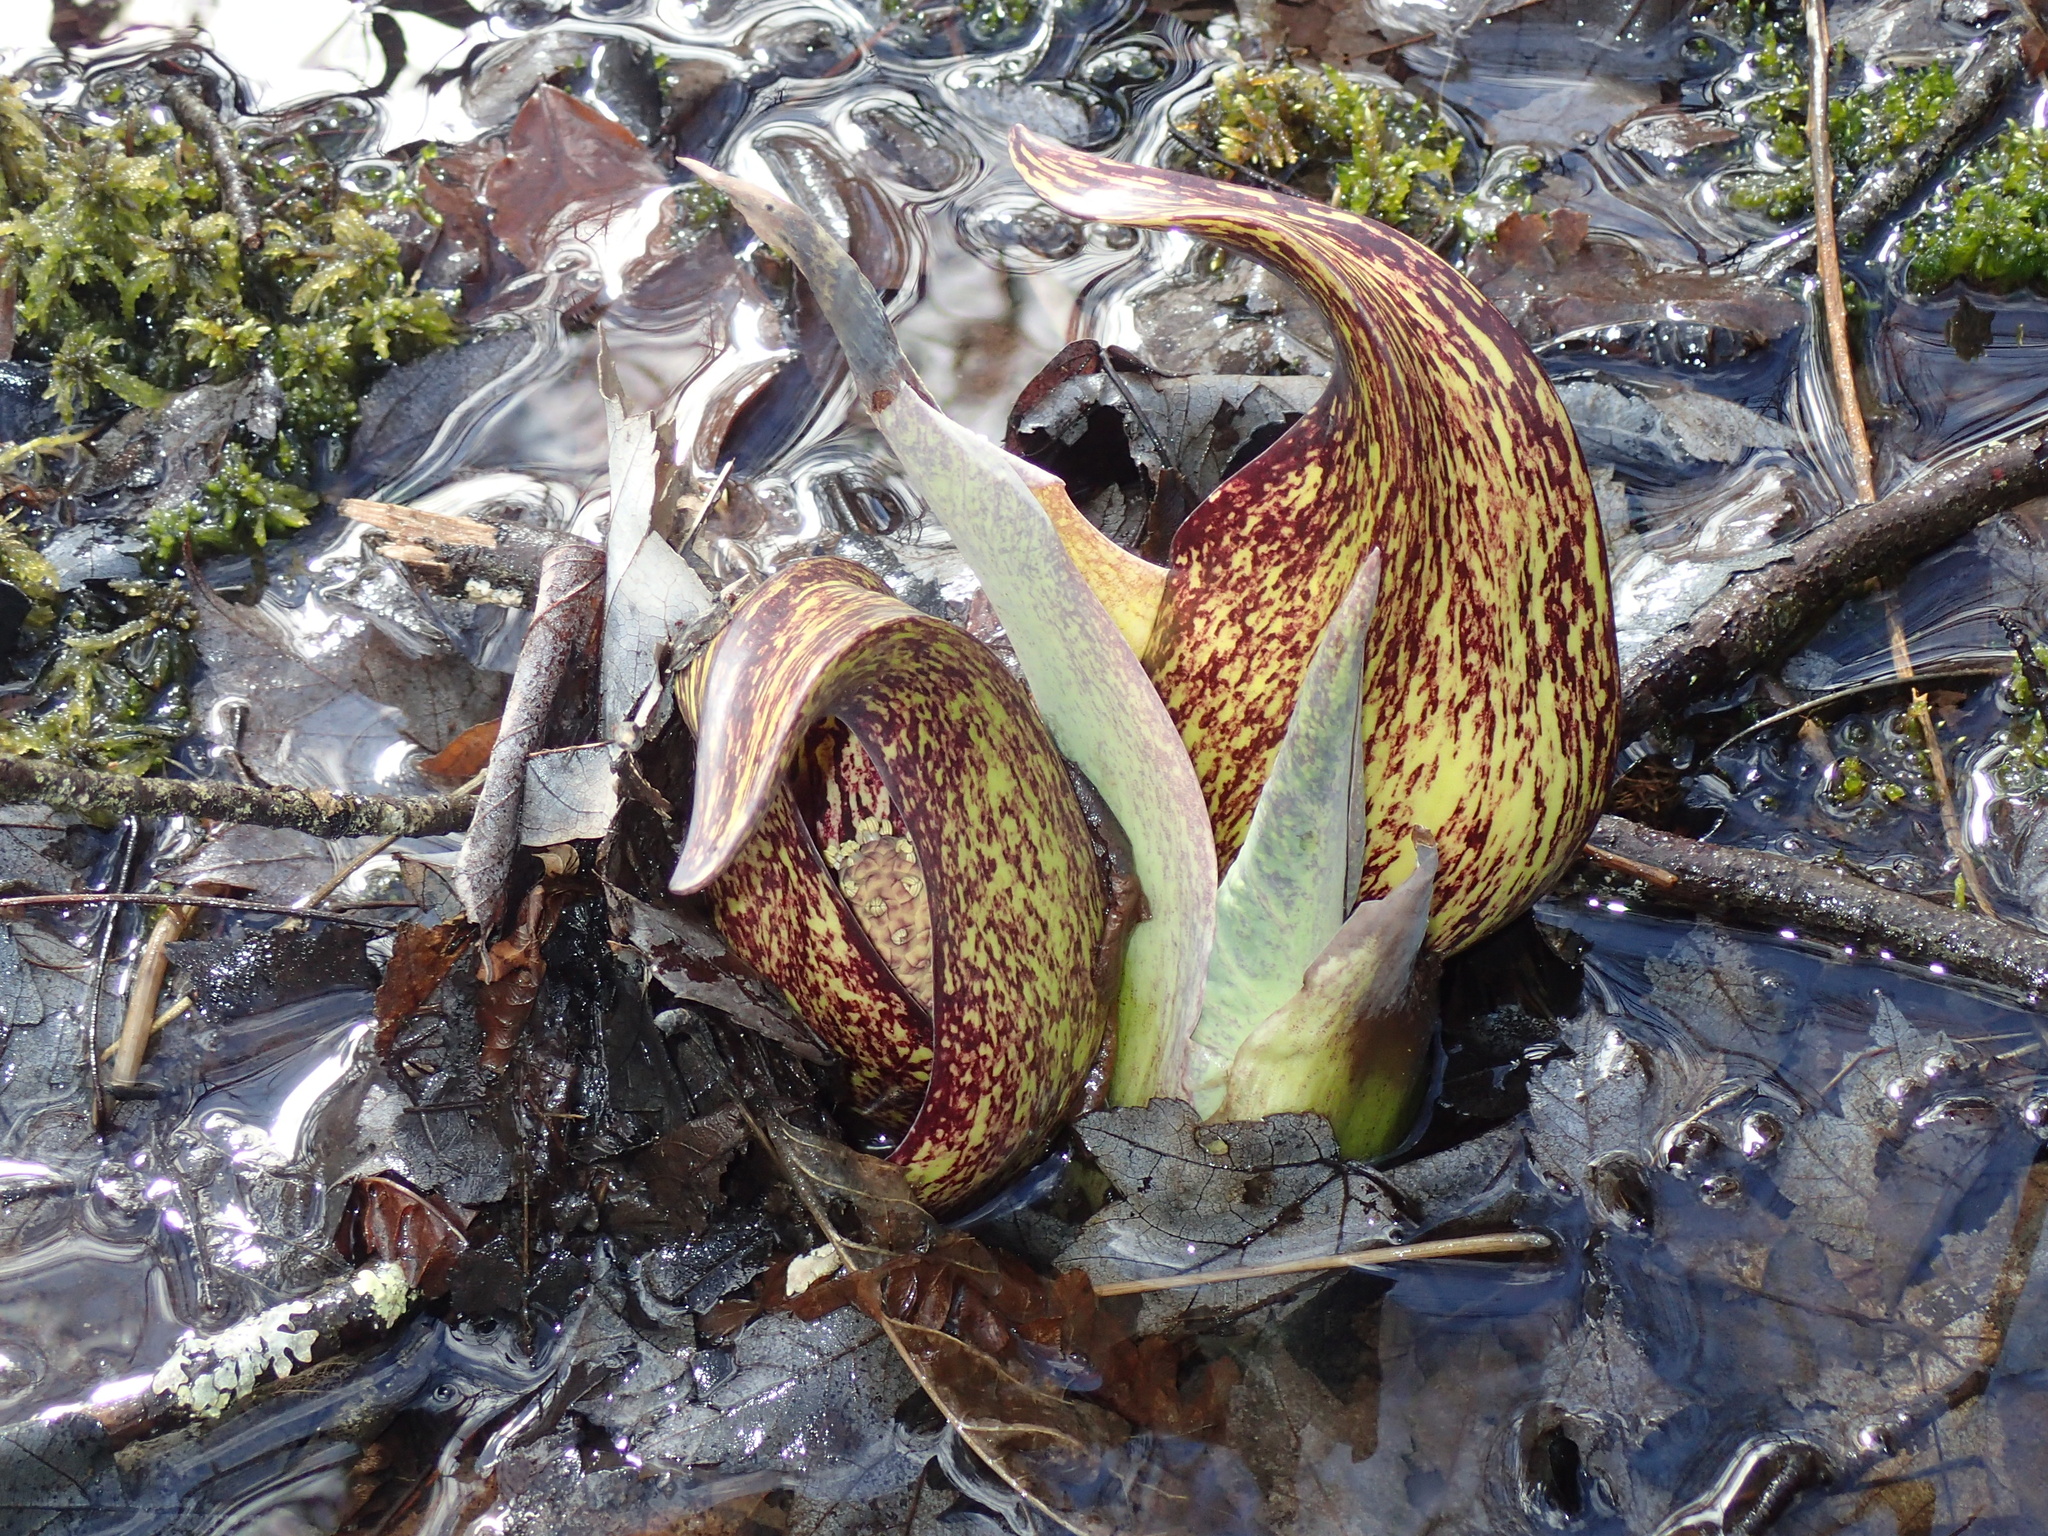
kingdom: Plantae
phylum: Tracheophyta
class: Liliopsida
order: Alismatales
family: Araceae
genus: Symplocarpus
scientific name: Symplocarpus foetidus
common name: Eastern skunk cabbage
